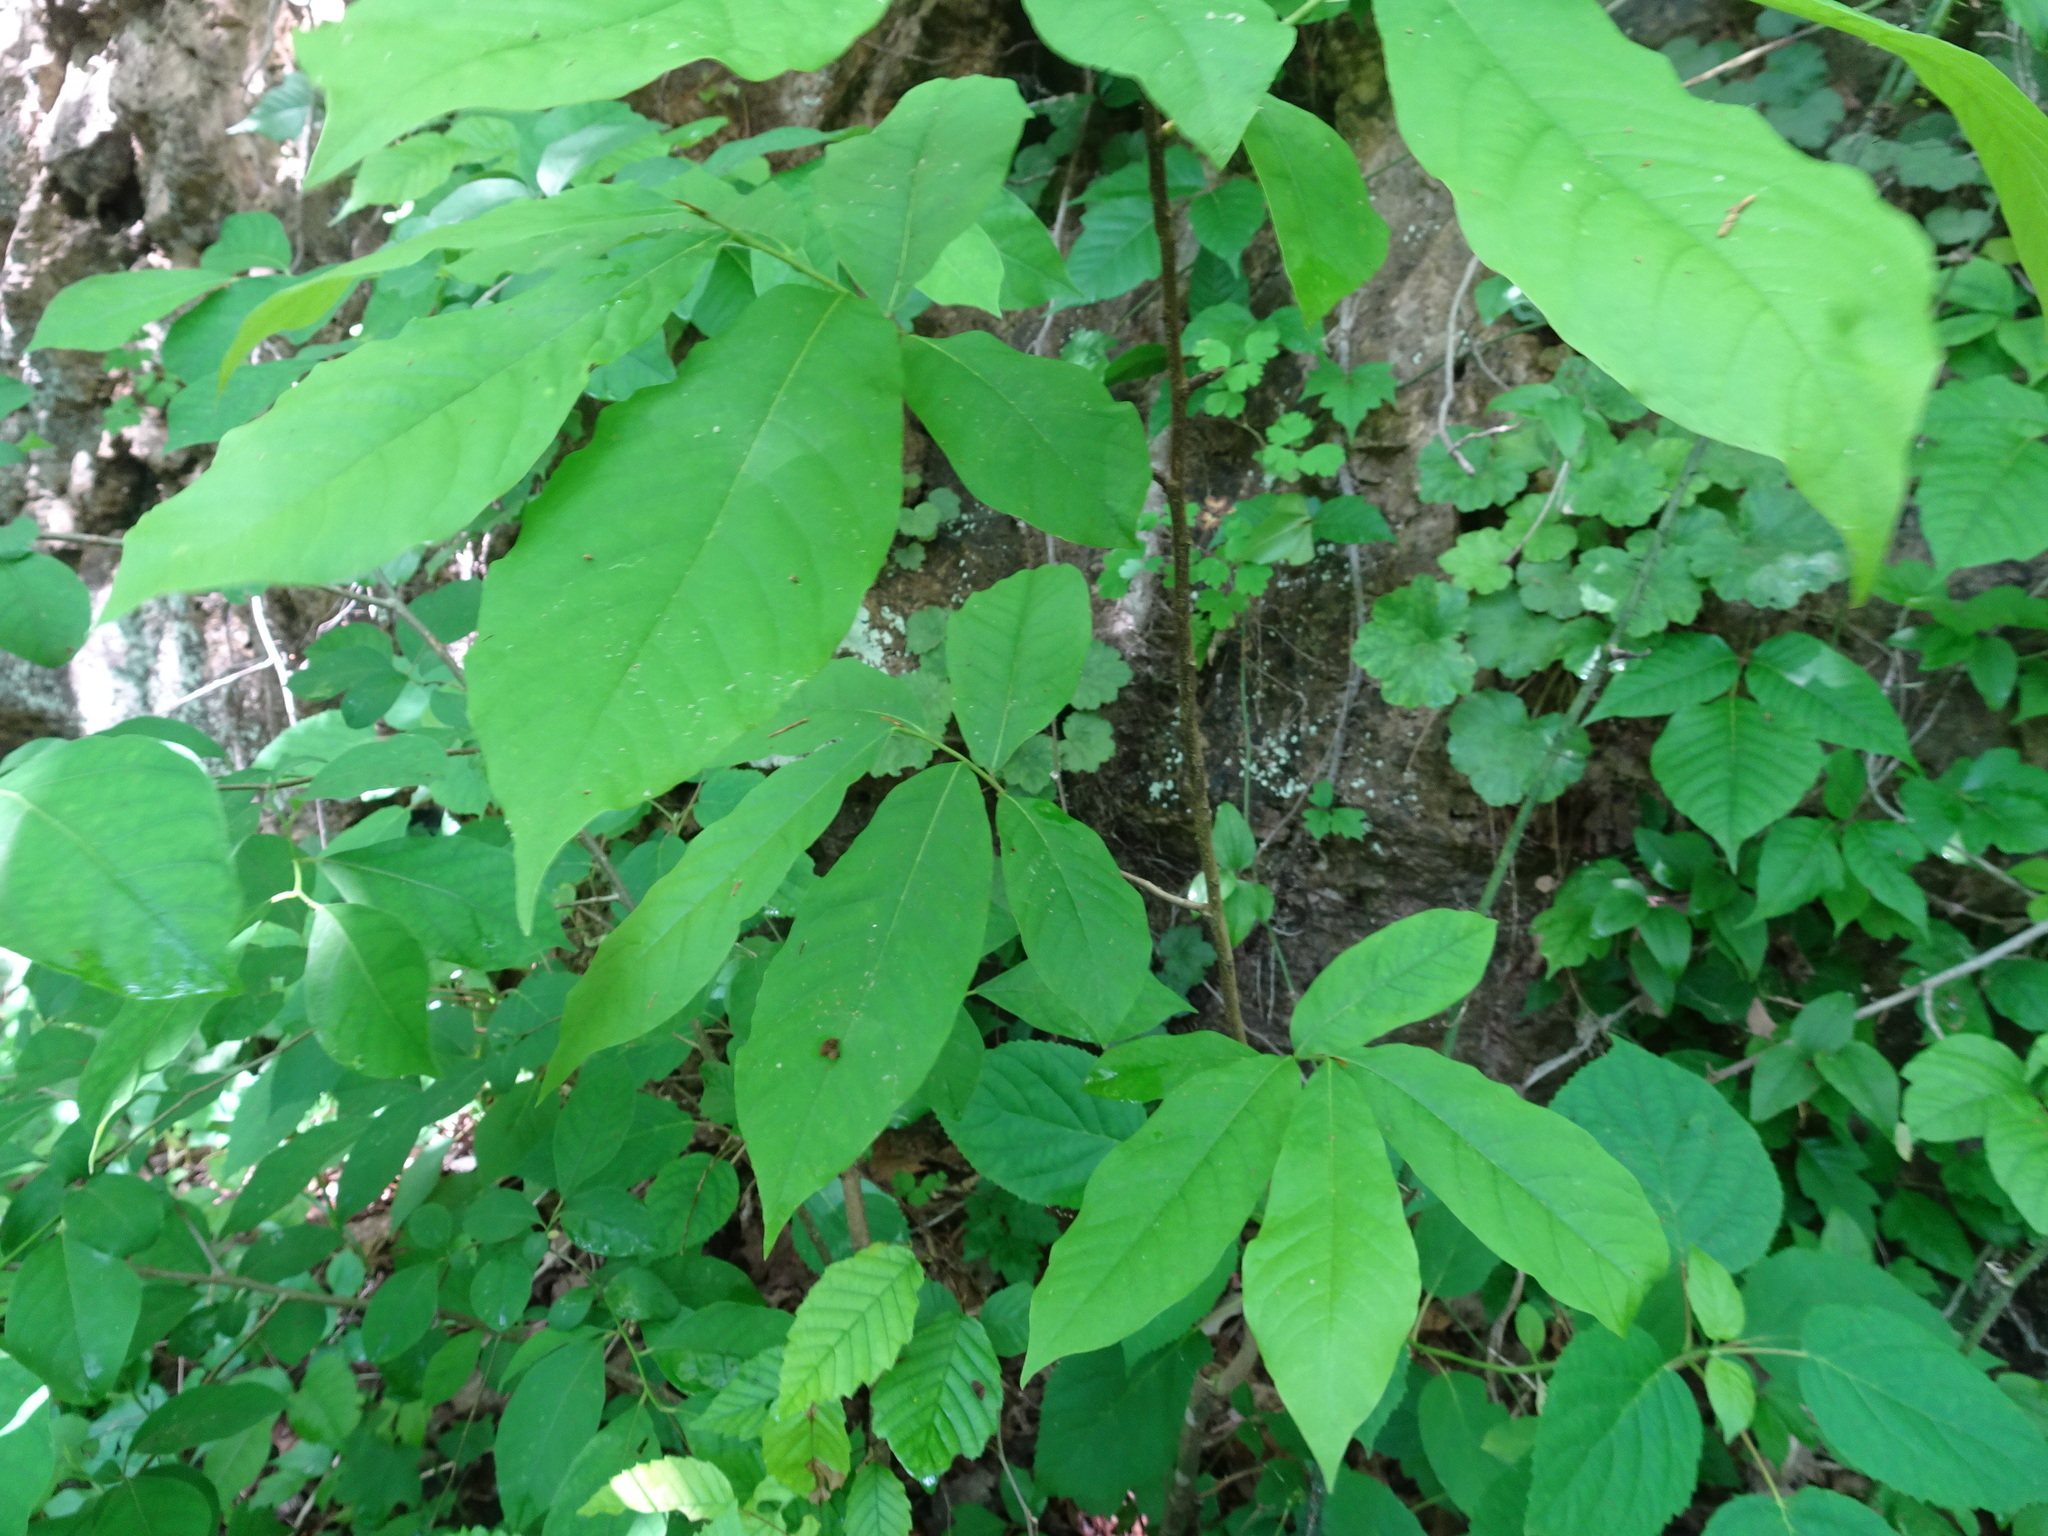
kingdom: Plantae
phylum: Tracheophyta
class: Magnoliopsida
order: Magnoliales
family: Annonaceae
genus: Asimina
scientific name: Asimina triloba
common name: Dog-banana
